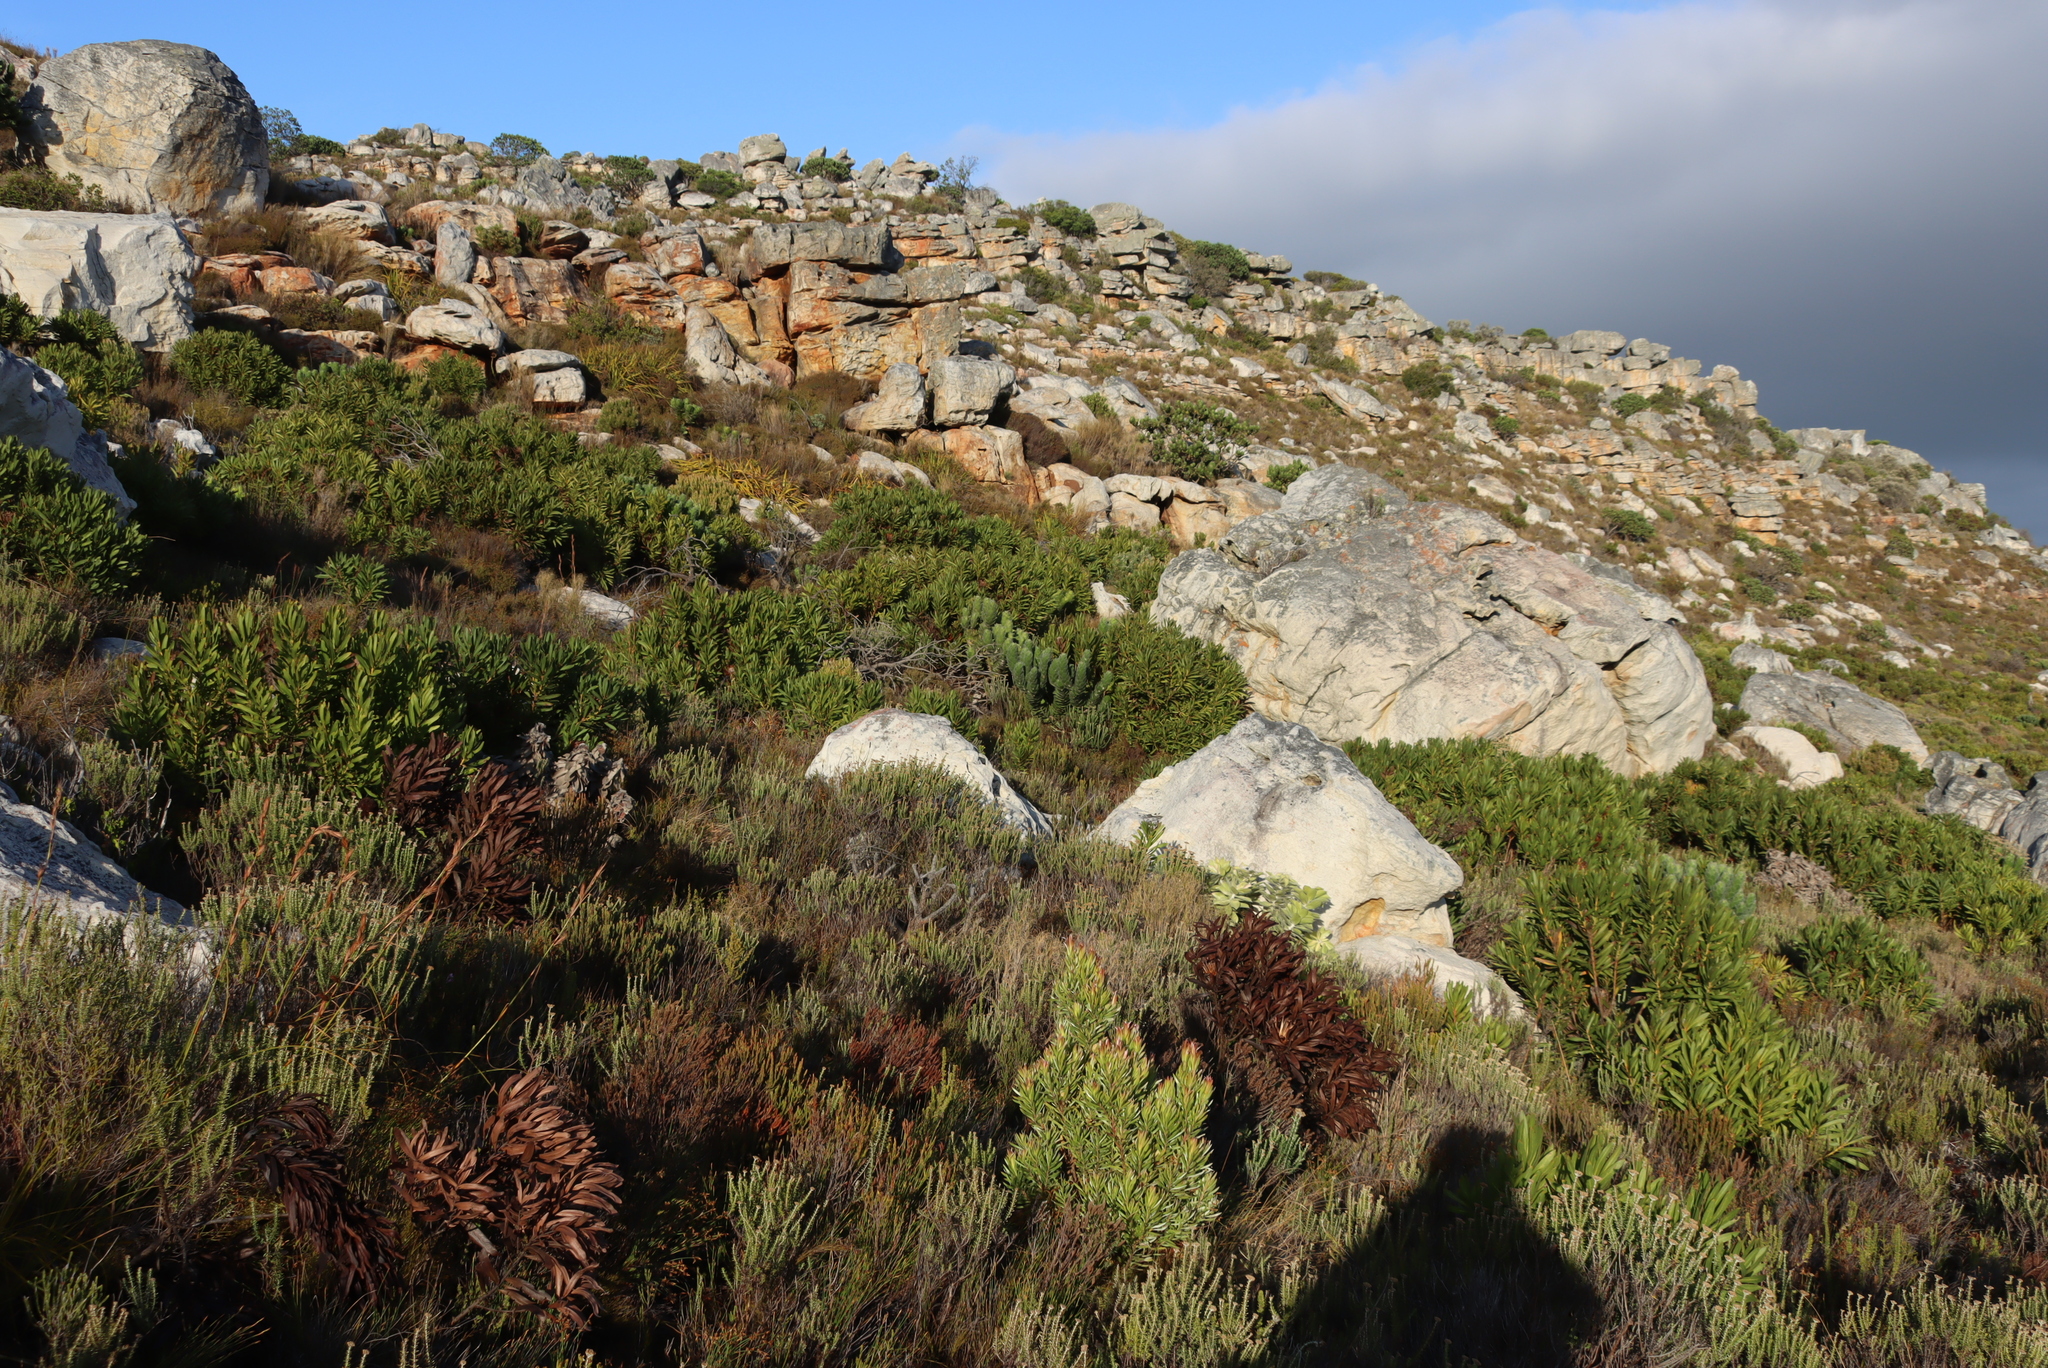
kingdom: Plantae
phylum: Tracheophyta
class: Magnoliopsida
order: Proteales
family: Proteaceae
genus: Mimetes
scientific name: Mimetes fimbriifolius
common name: Fringed bottlebrush
